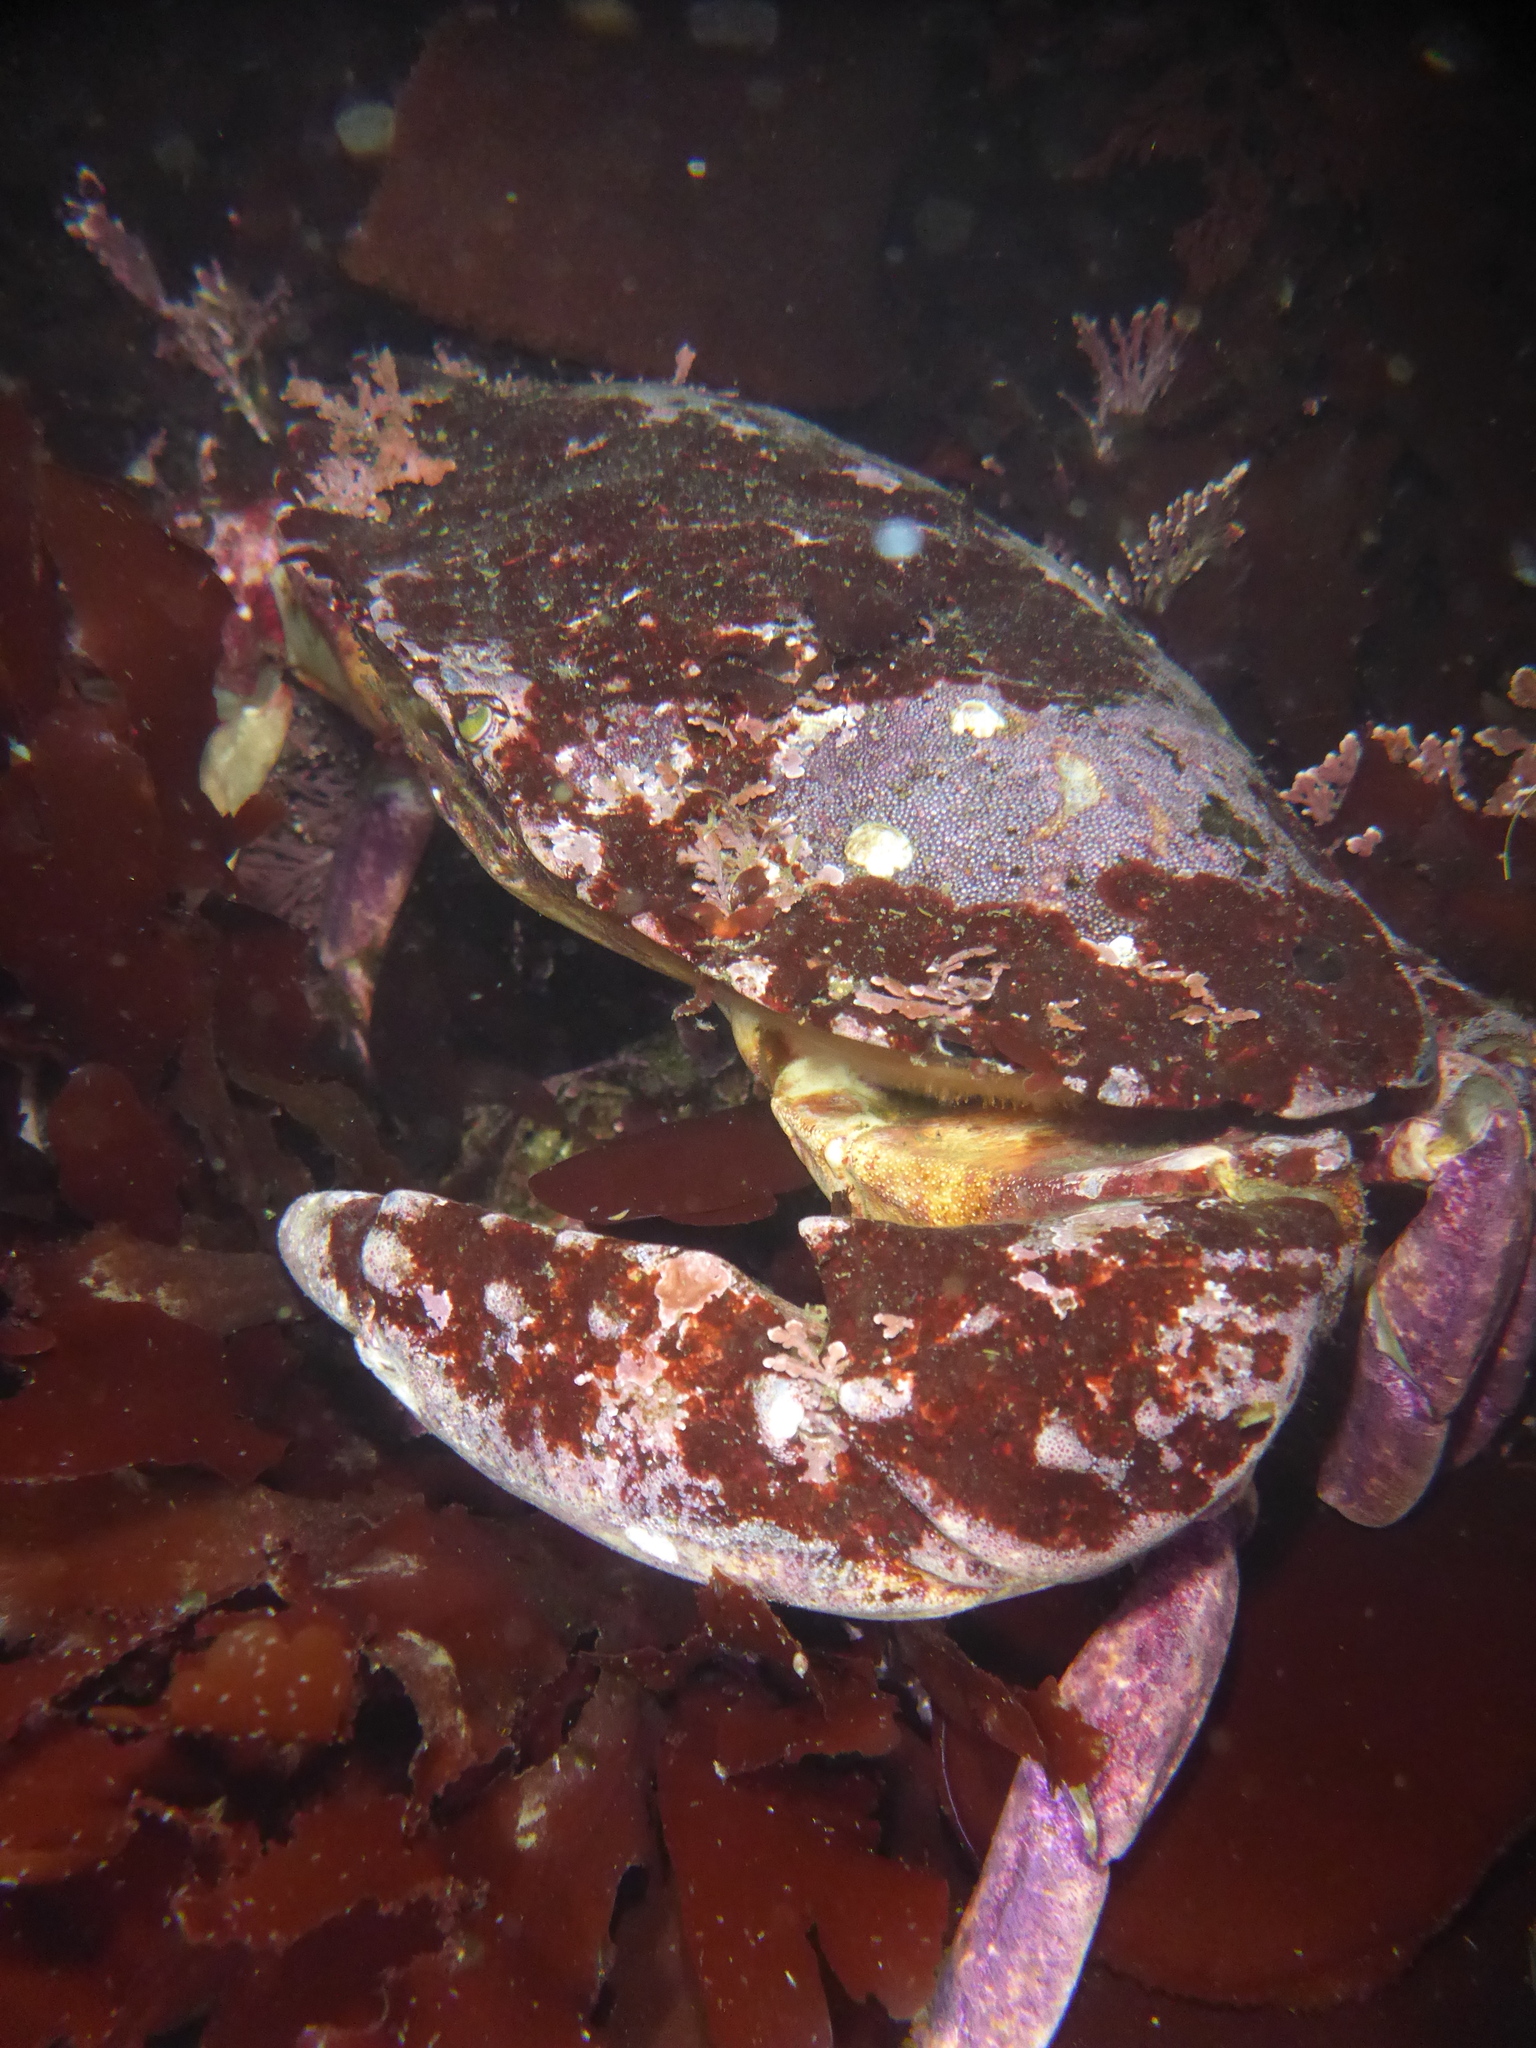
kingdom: Animalia
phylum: Arthropoda
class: Malacostraca
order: Decapoda
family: Cancridae
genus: Cancer
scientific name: Cancer productus
